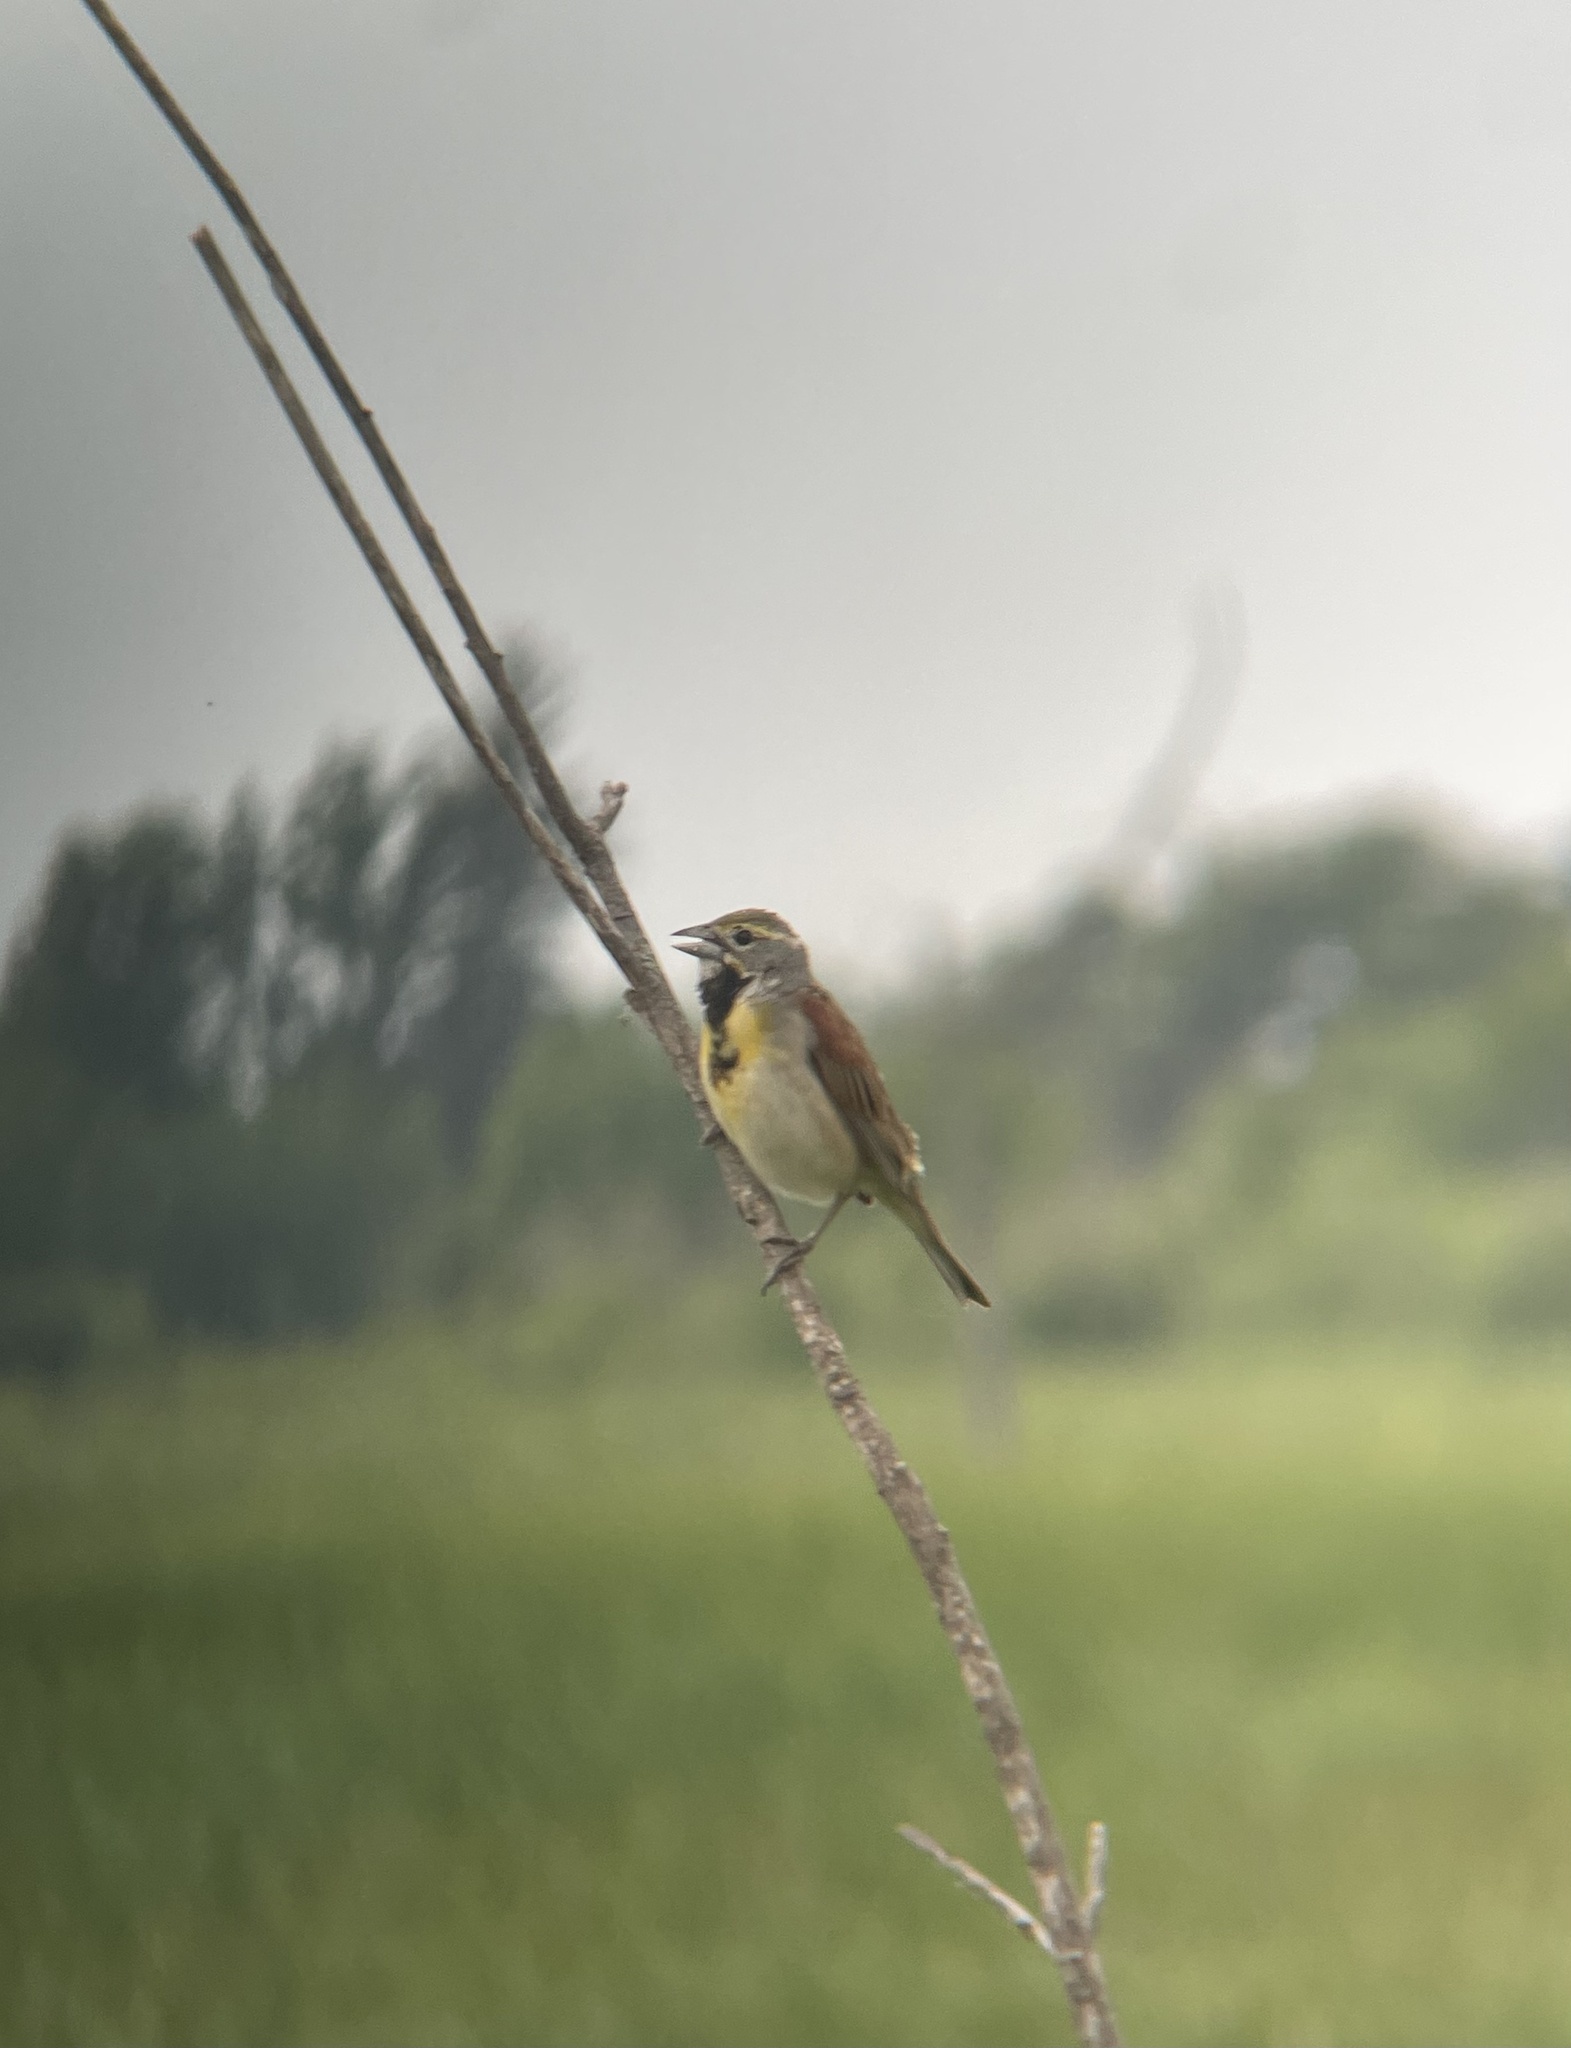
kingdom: Animalia
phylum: Chordata
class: Aves
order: Passeriformes
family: Cardinalidae
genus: Spiza
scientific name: Spiza americana
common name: Dickcissel
